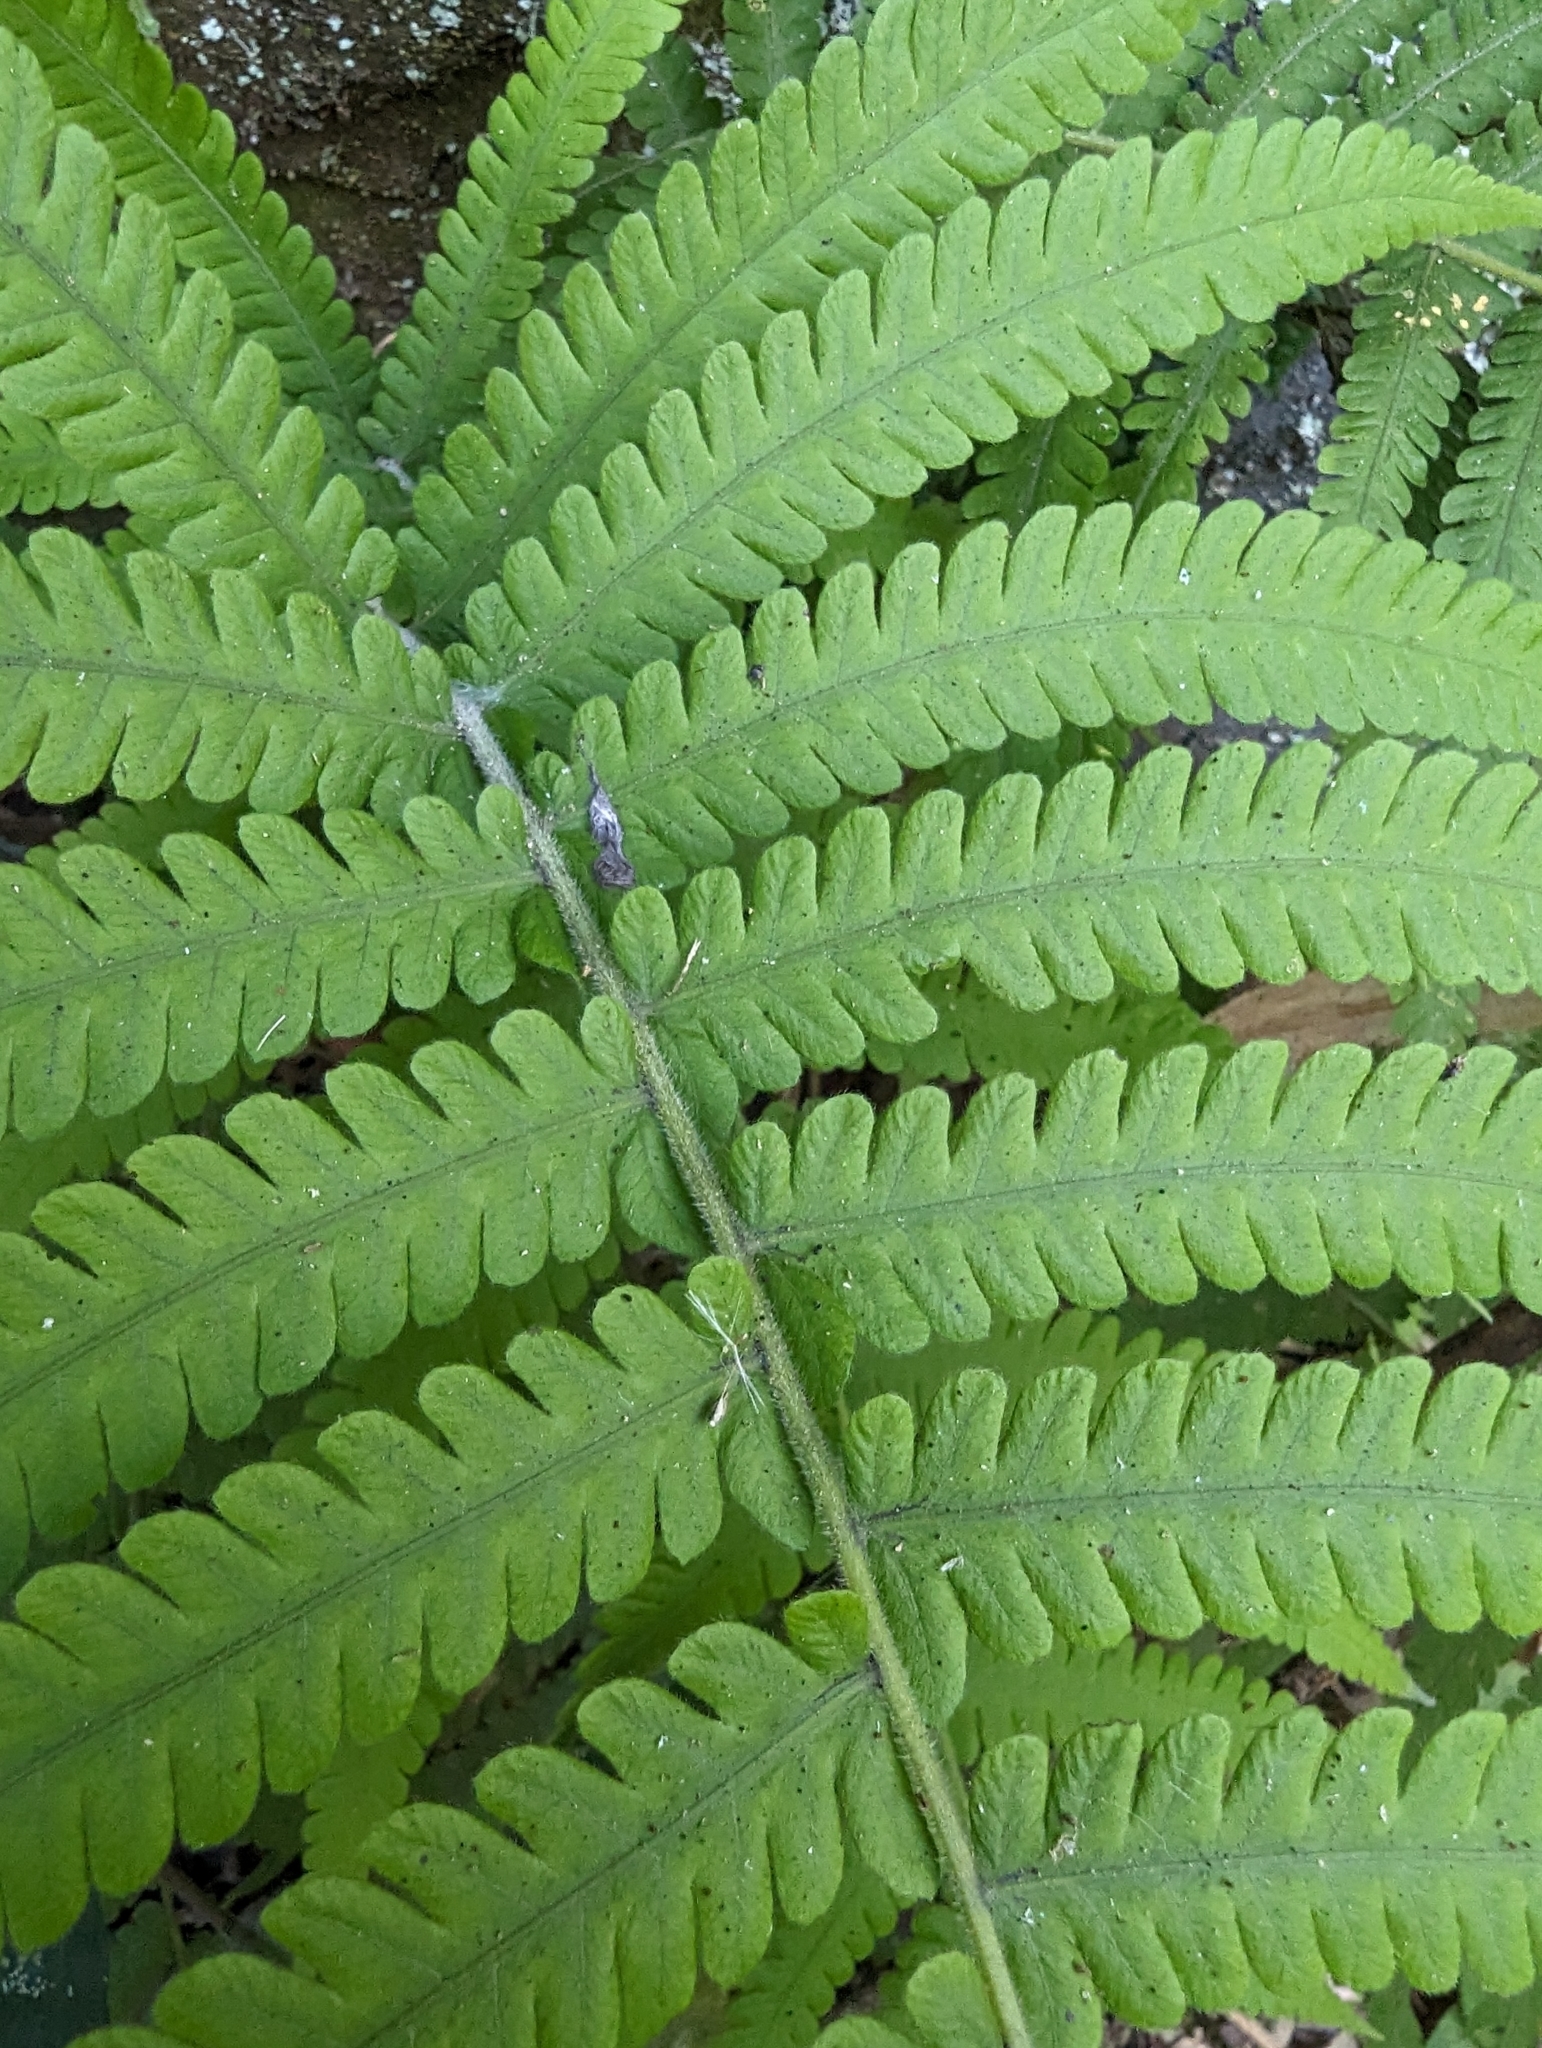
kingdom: Plantae
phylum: Tracheophyta
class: Polypodiopsida
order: Polypodiales
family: Thelypteridaceae
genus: Christella
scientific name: Christella parasitica
